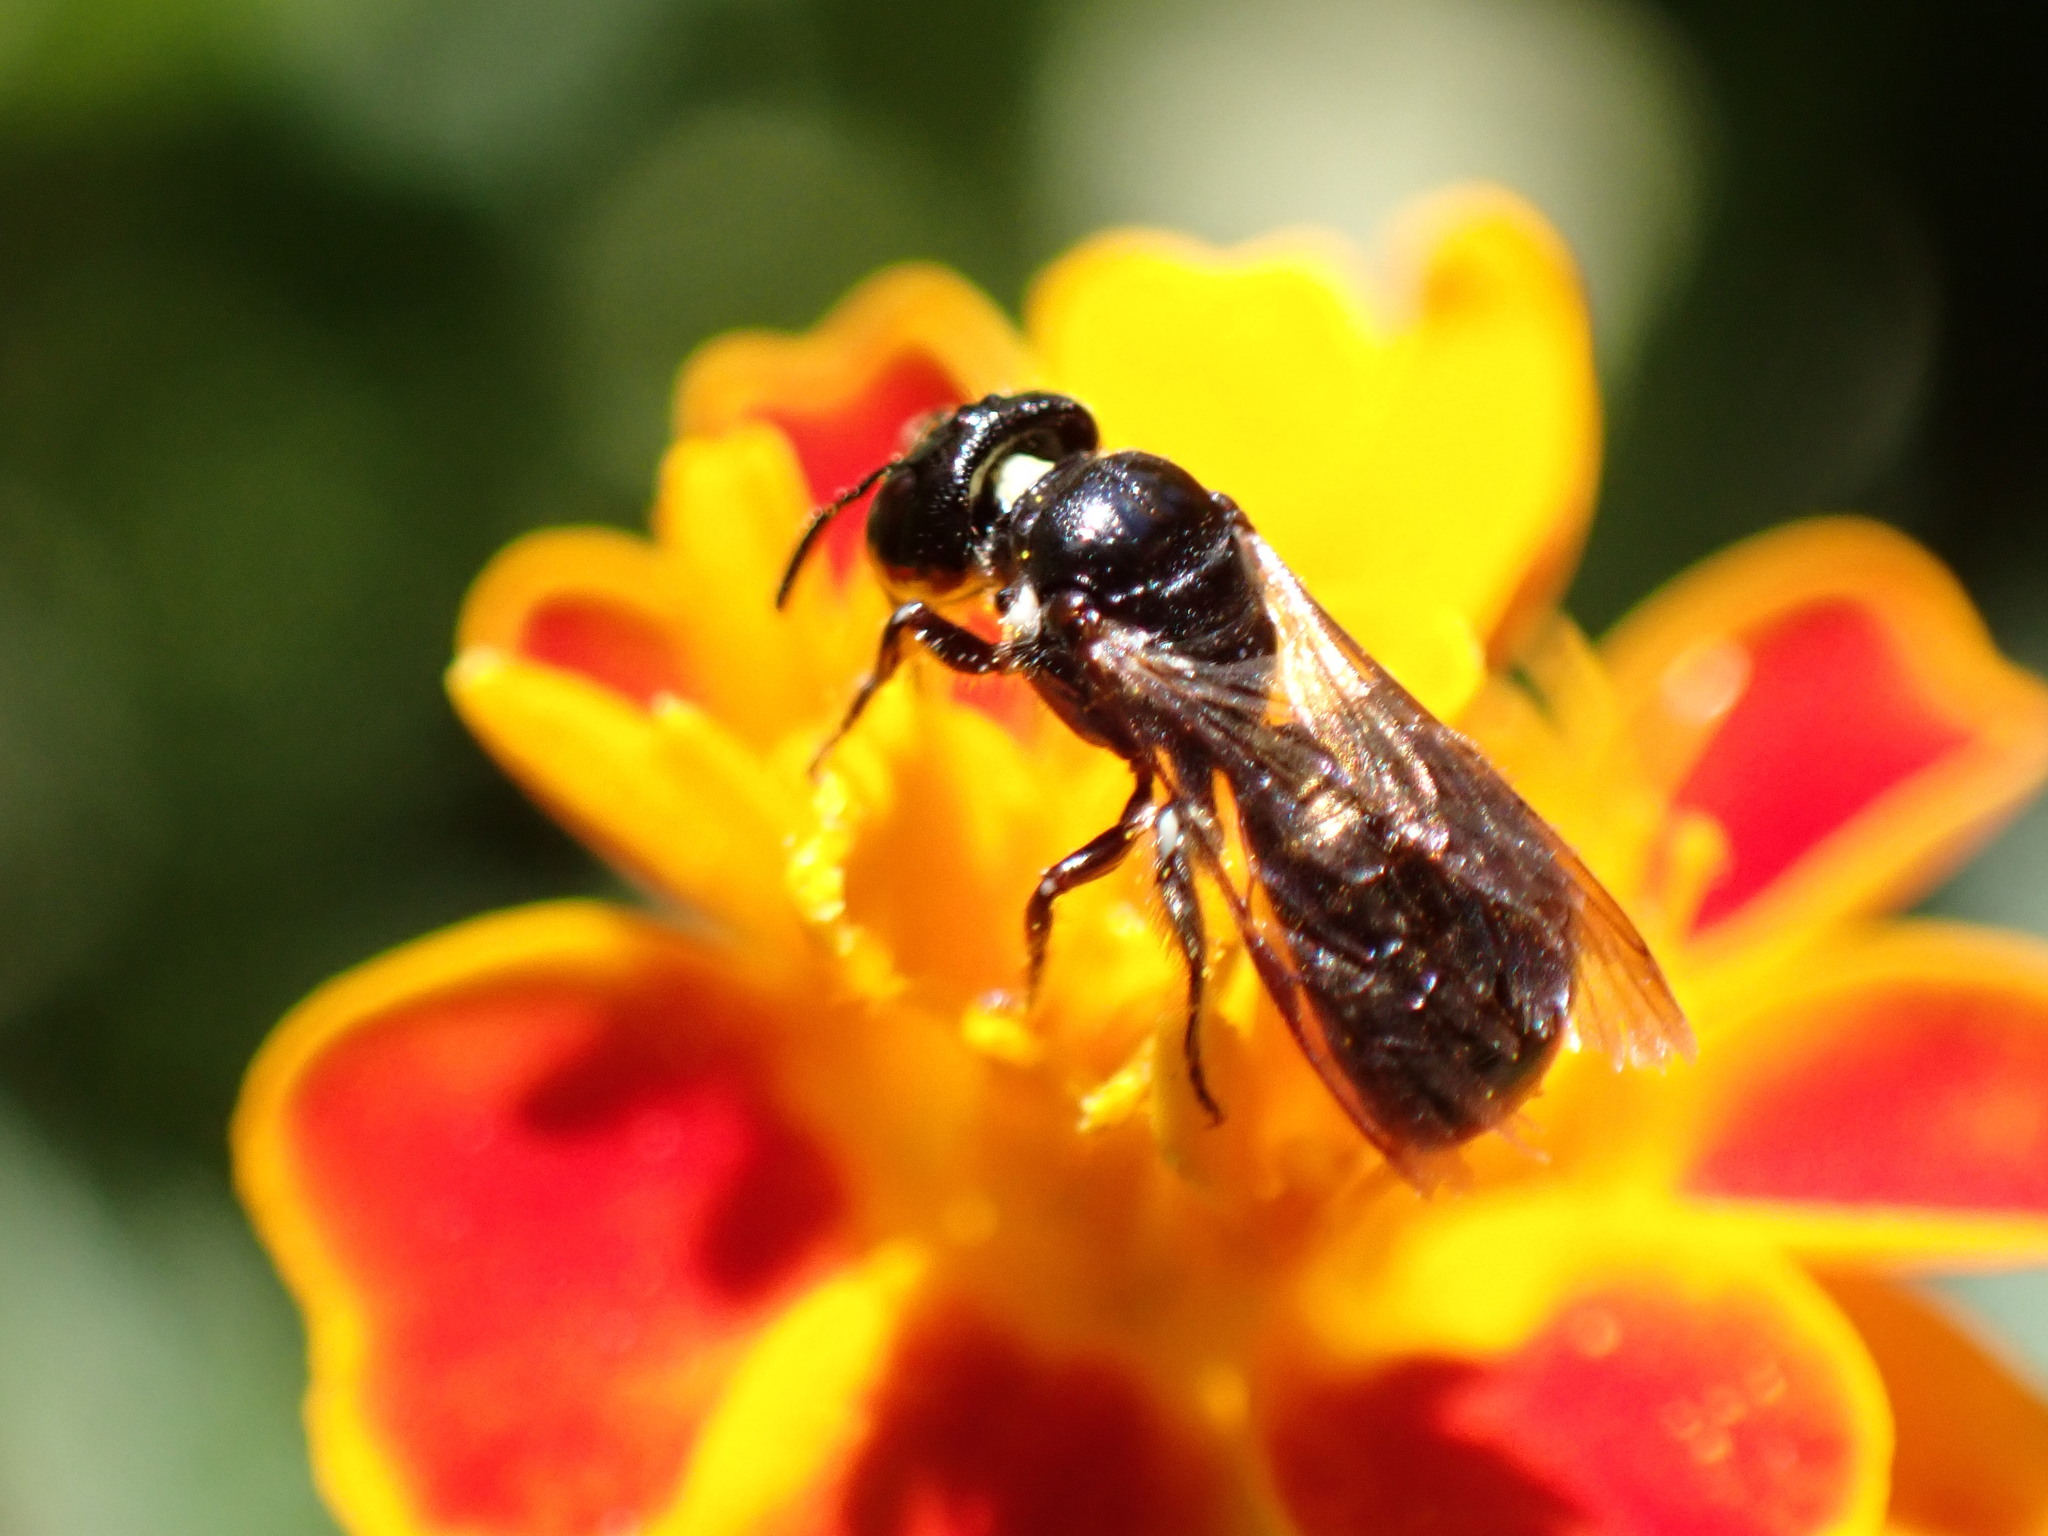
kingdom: Animalia
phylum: Arthropoda
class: Insecta
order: Hymenoptera
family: Apidae
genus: Ceratina
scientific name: Ceratina cucurbitina
